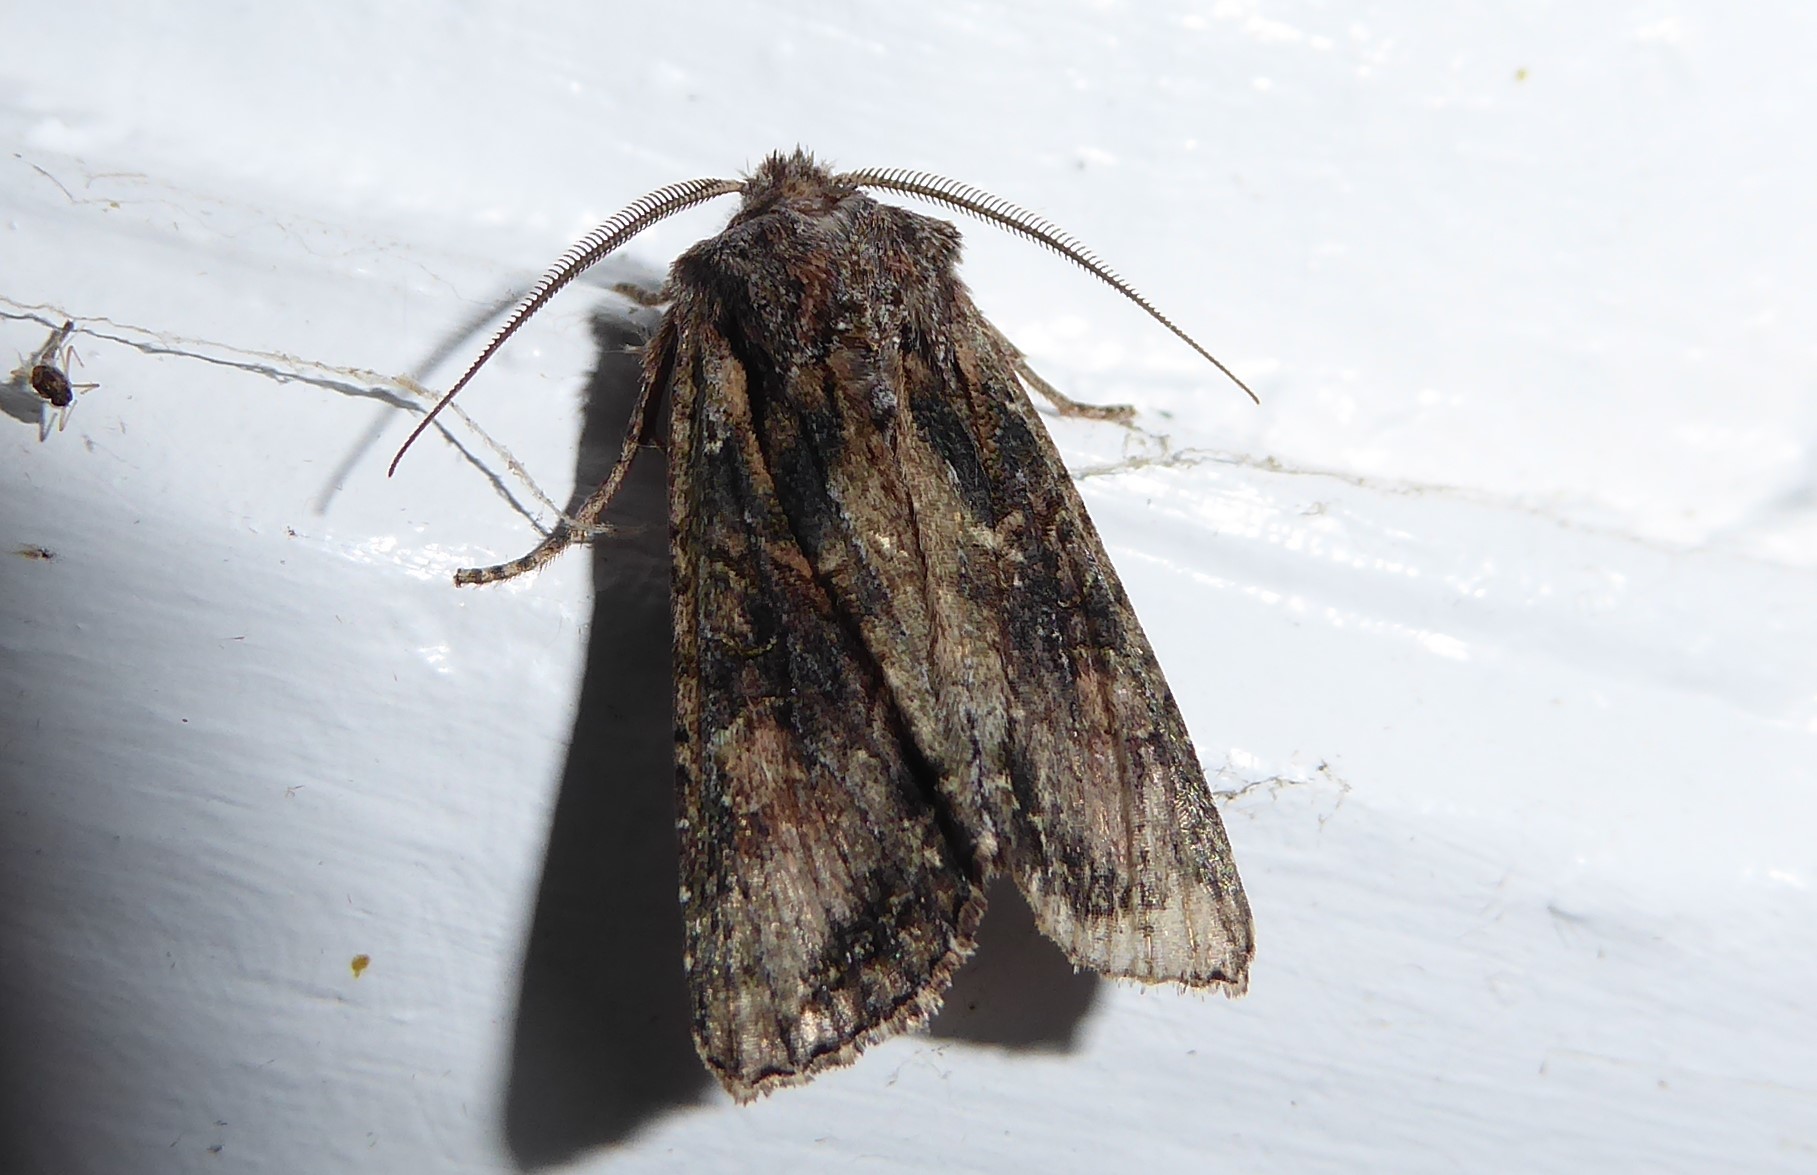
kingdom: Animalia
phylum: Arthropoda
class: Insecta
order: Lepidoptera
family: Noctuidae
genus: Ichneutica
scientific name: Ichneutica mutans
